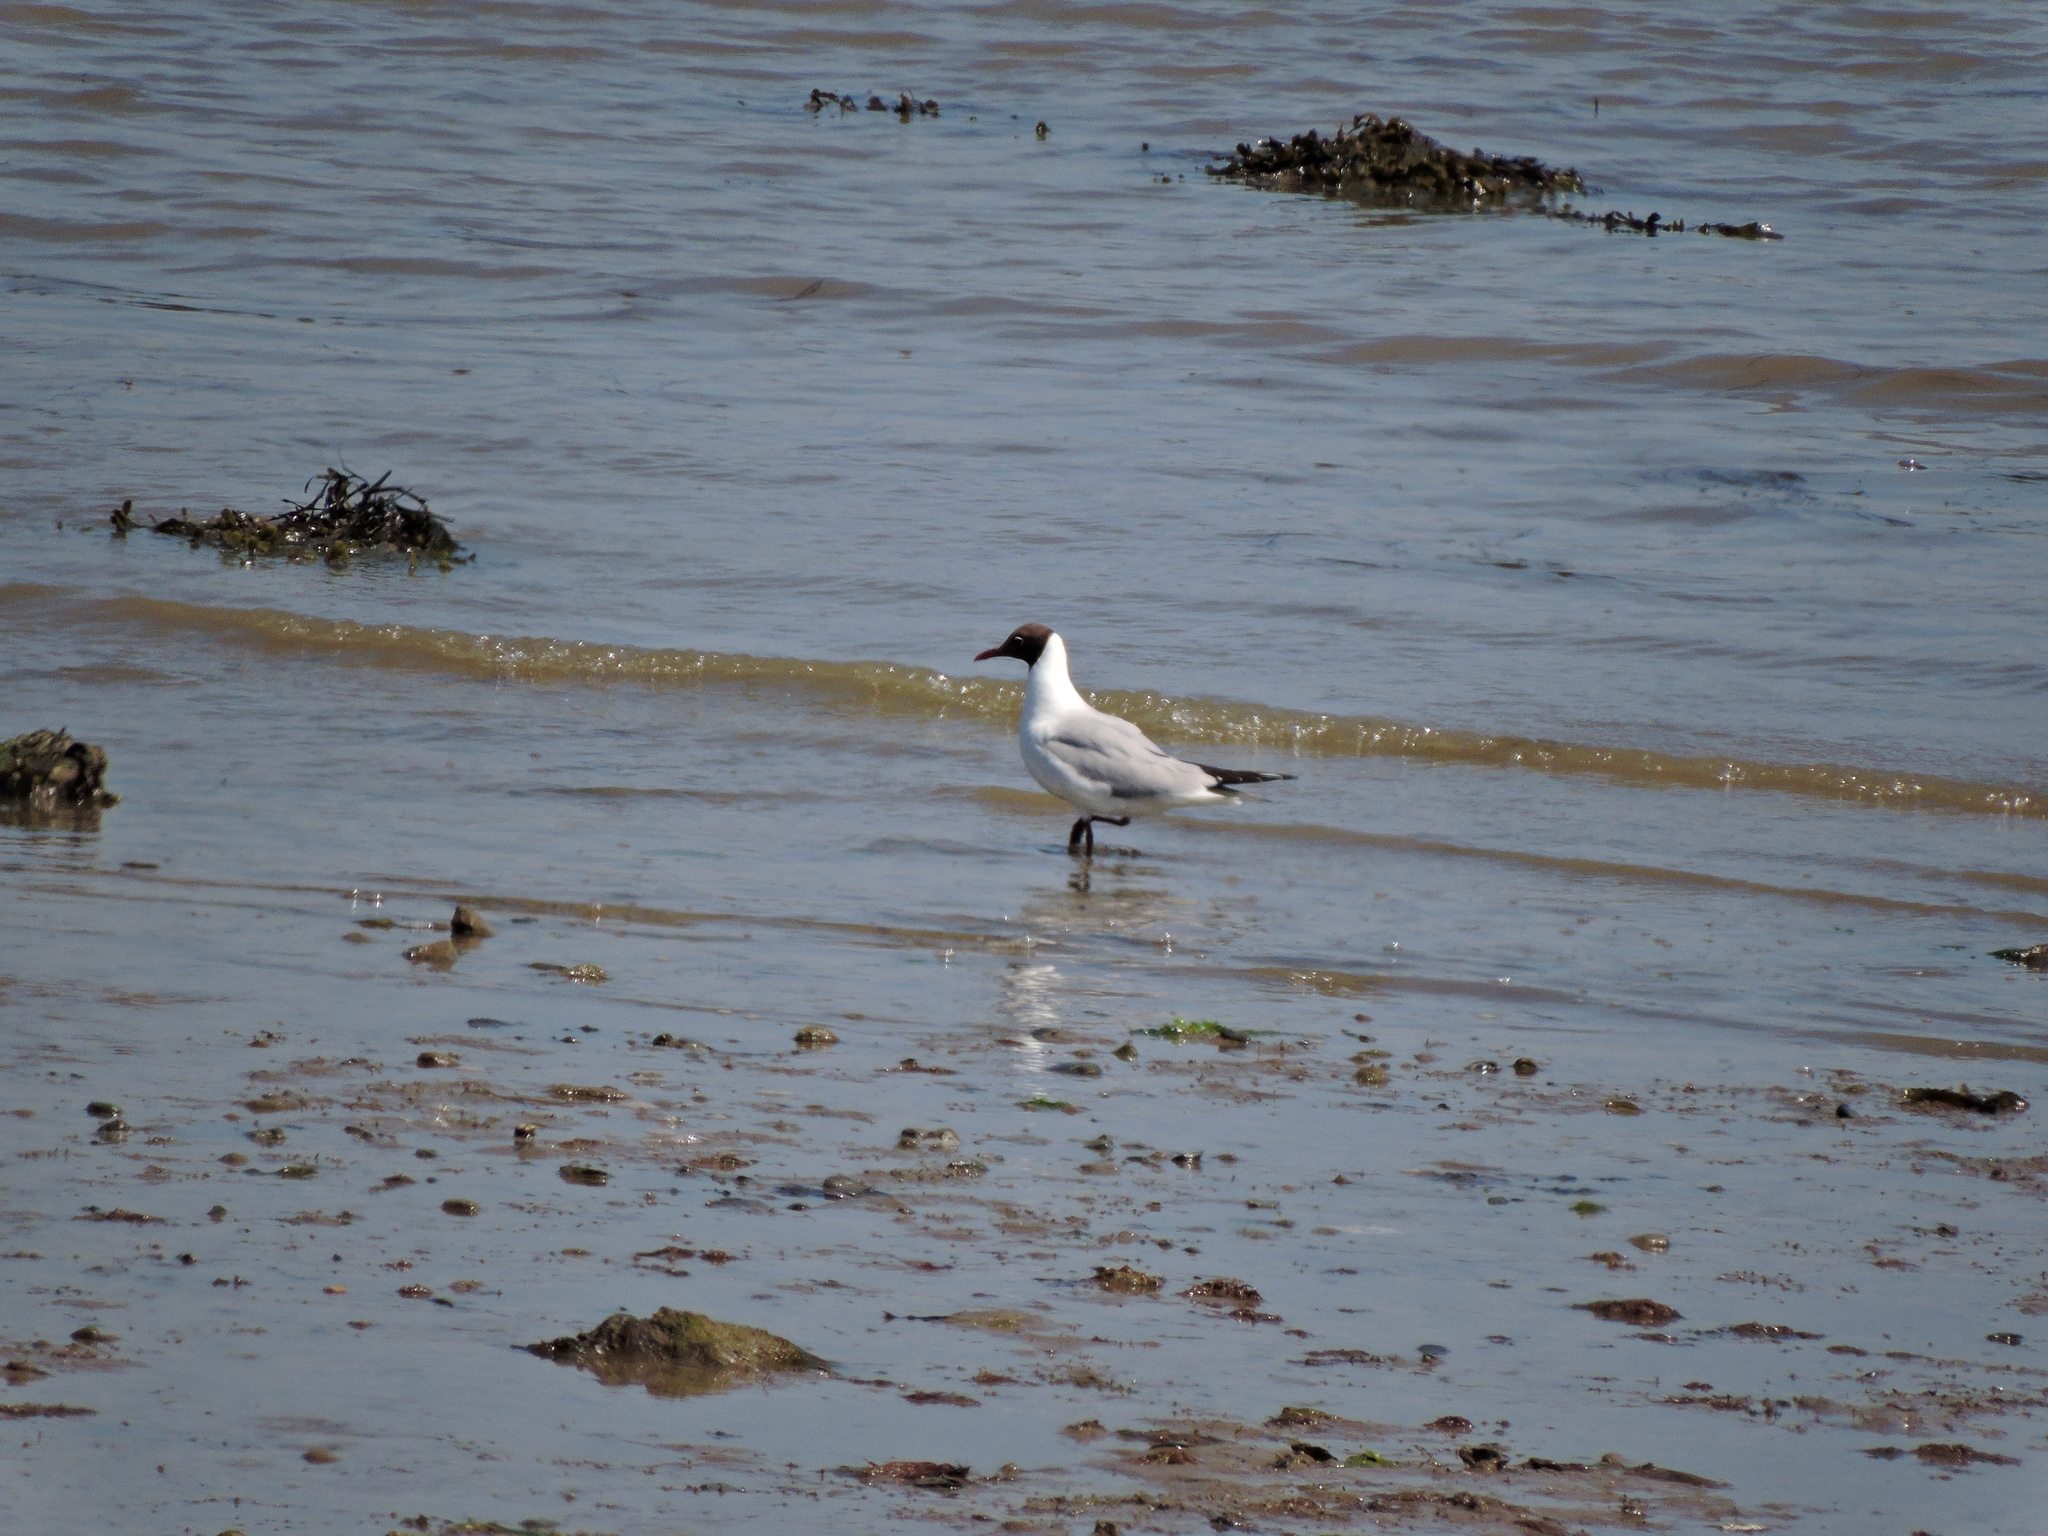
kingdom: Animalia
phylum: Chordata
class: Aves
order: Charadriiformes
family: Laridae
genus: Chroicocephalus
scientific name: Chroicocephalus ridibundus
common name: Black-headed gull
